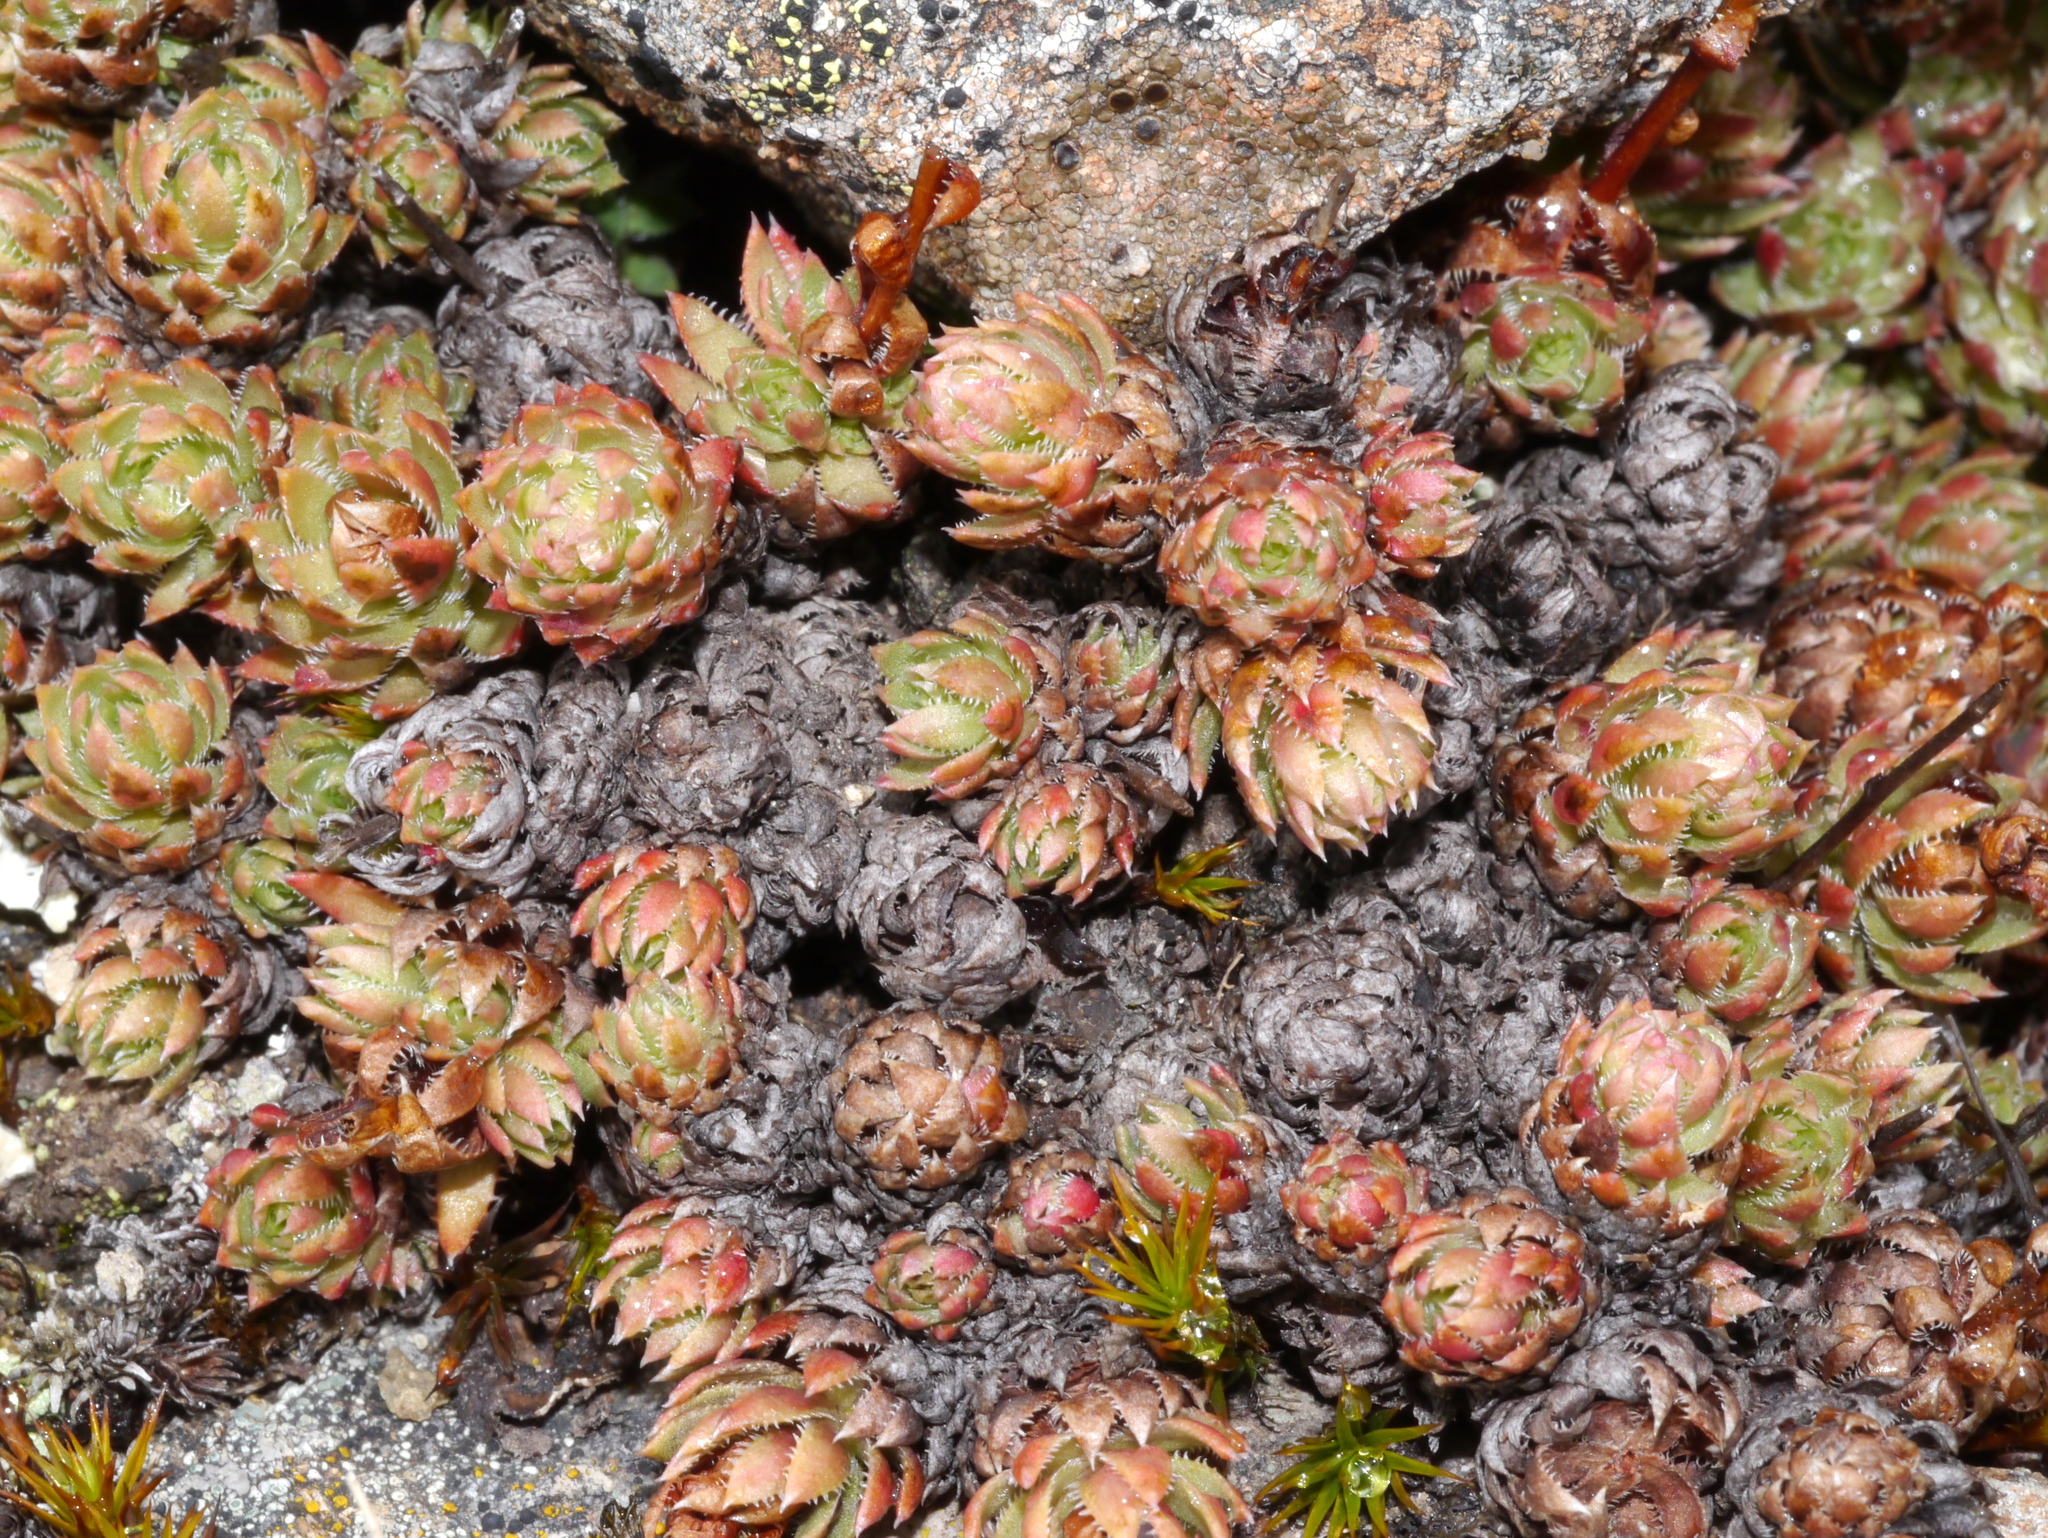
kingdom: Plantae
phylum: Tracheophyta
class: Magnoliopsida
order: Saxifragales
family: Saxifragaceae
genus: Saxifraga
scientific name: Saxifraga bronchialis
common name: Matted saxifrage
